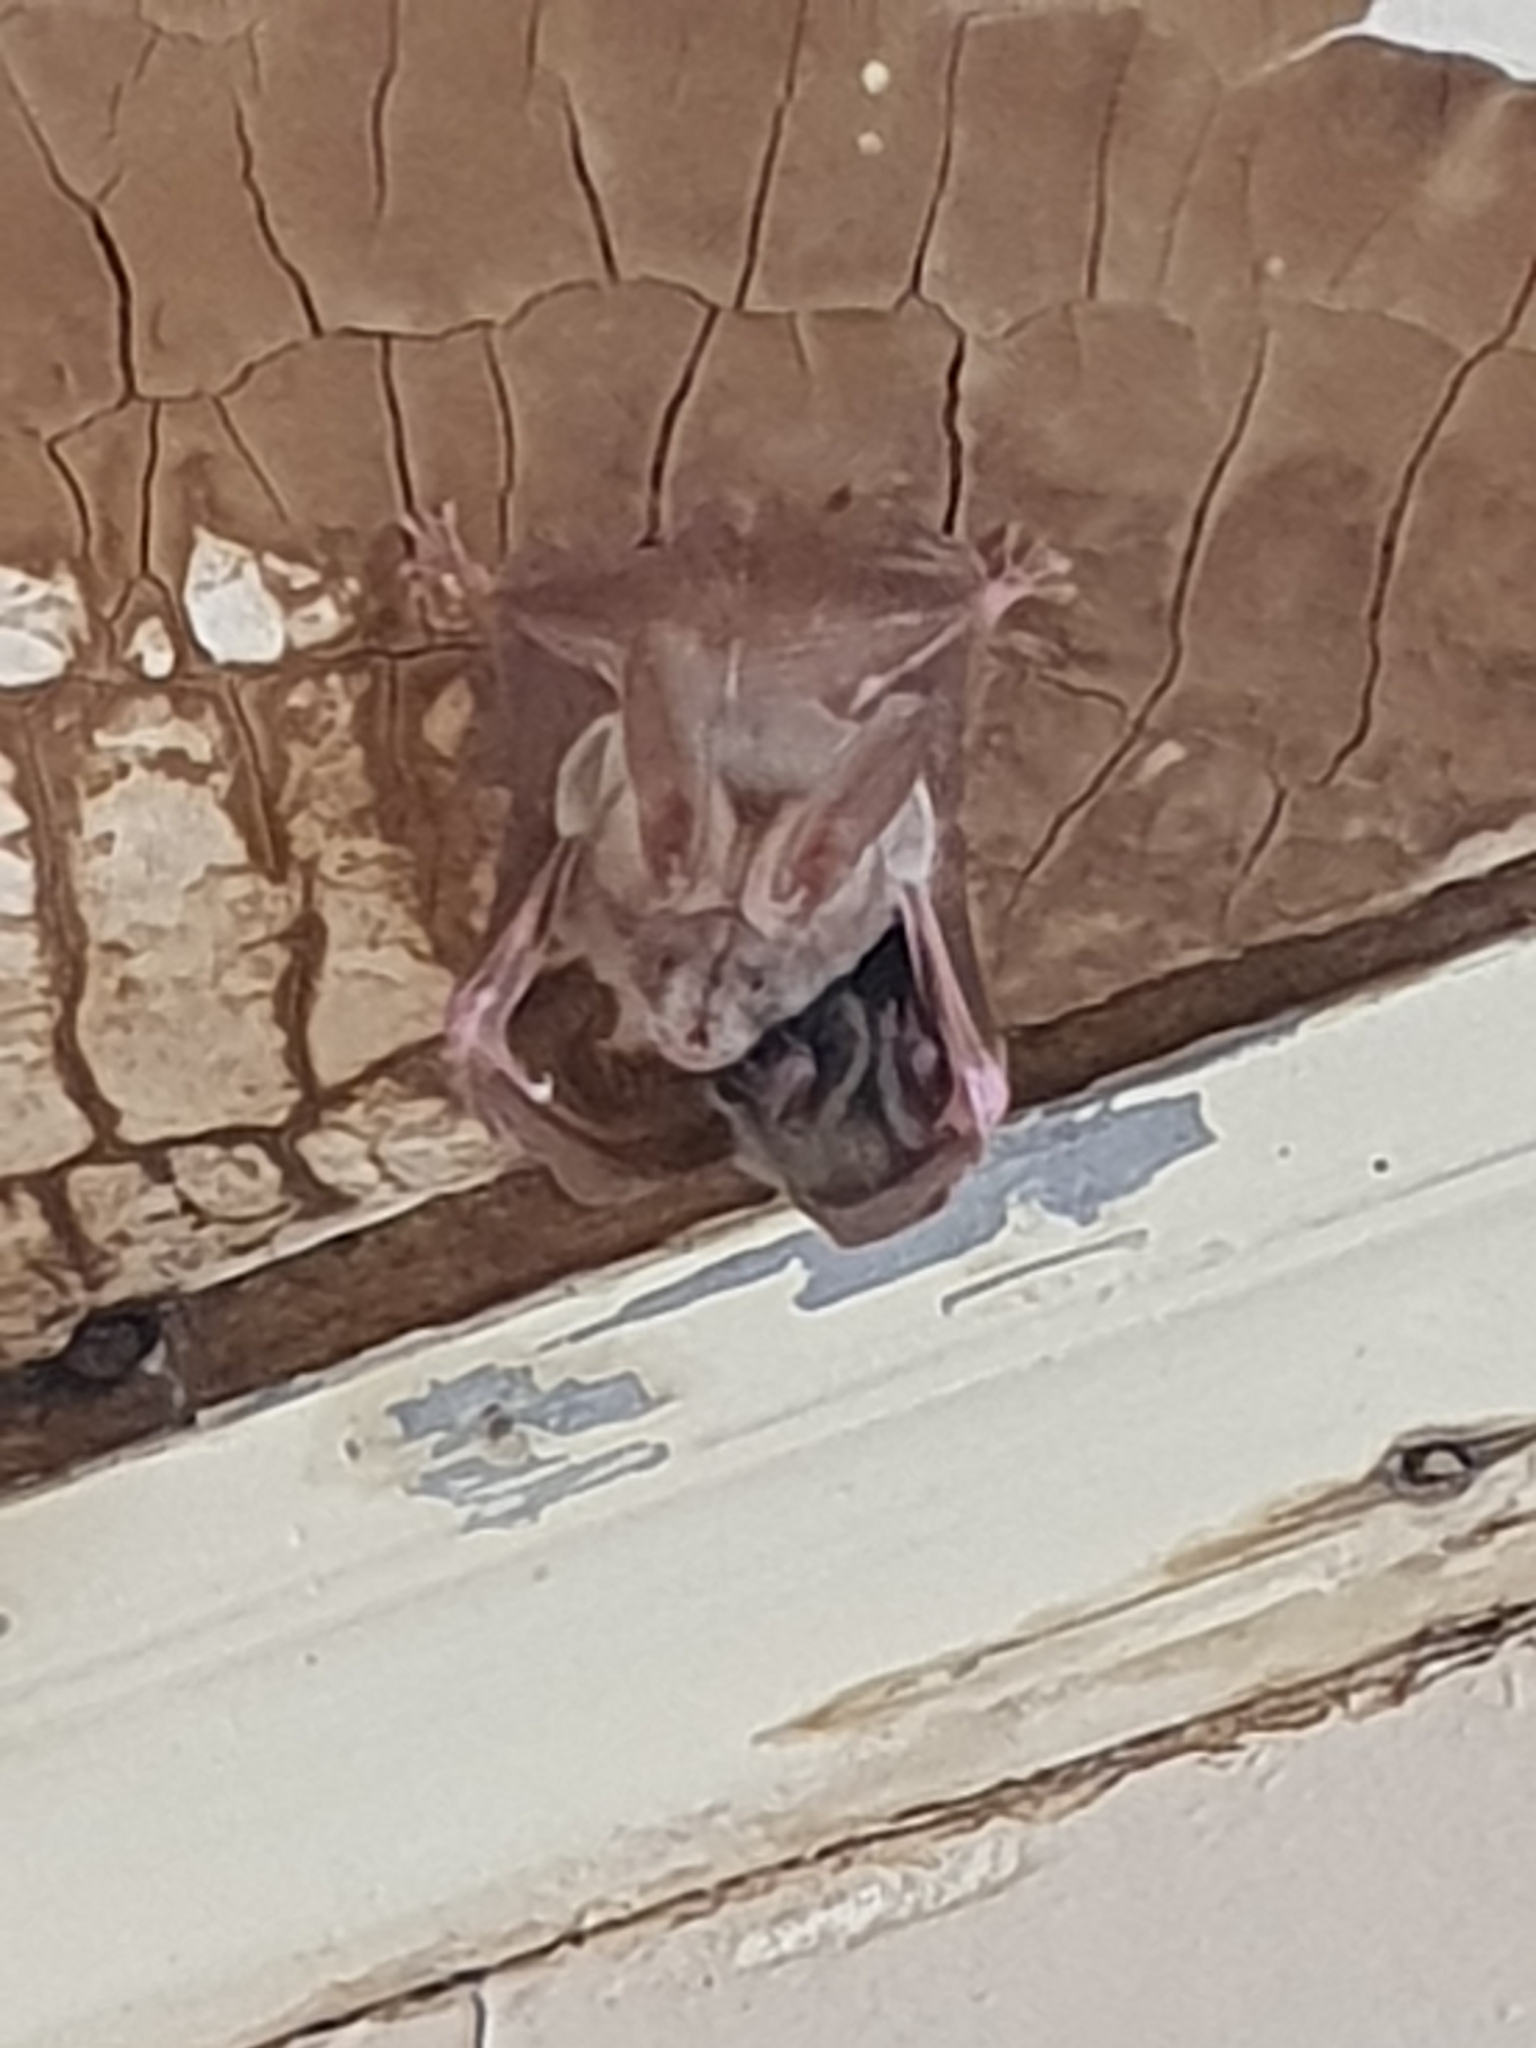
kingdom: Animalia
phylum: Chordata
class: Mammalia
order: Chiroptera
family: Nycteridae
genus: Nycteris
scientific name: Nycteris thebaica
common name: Egyptian slit-faced bat
